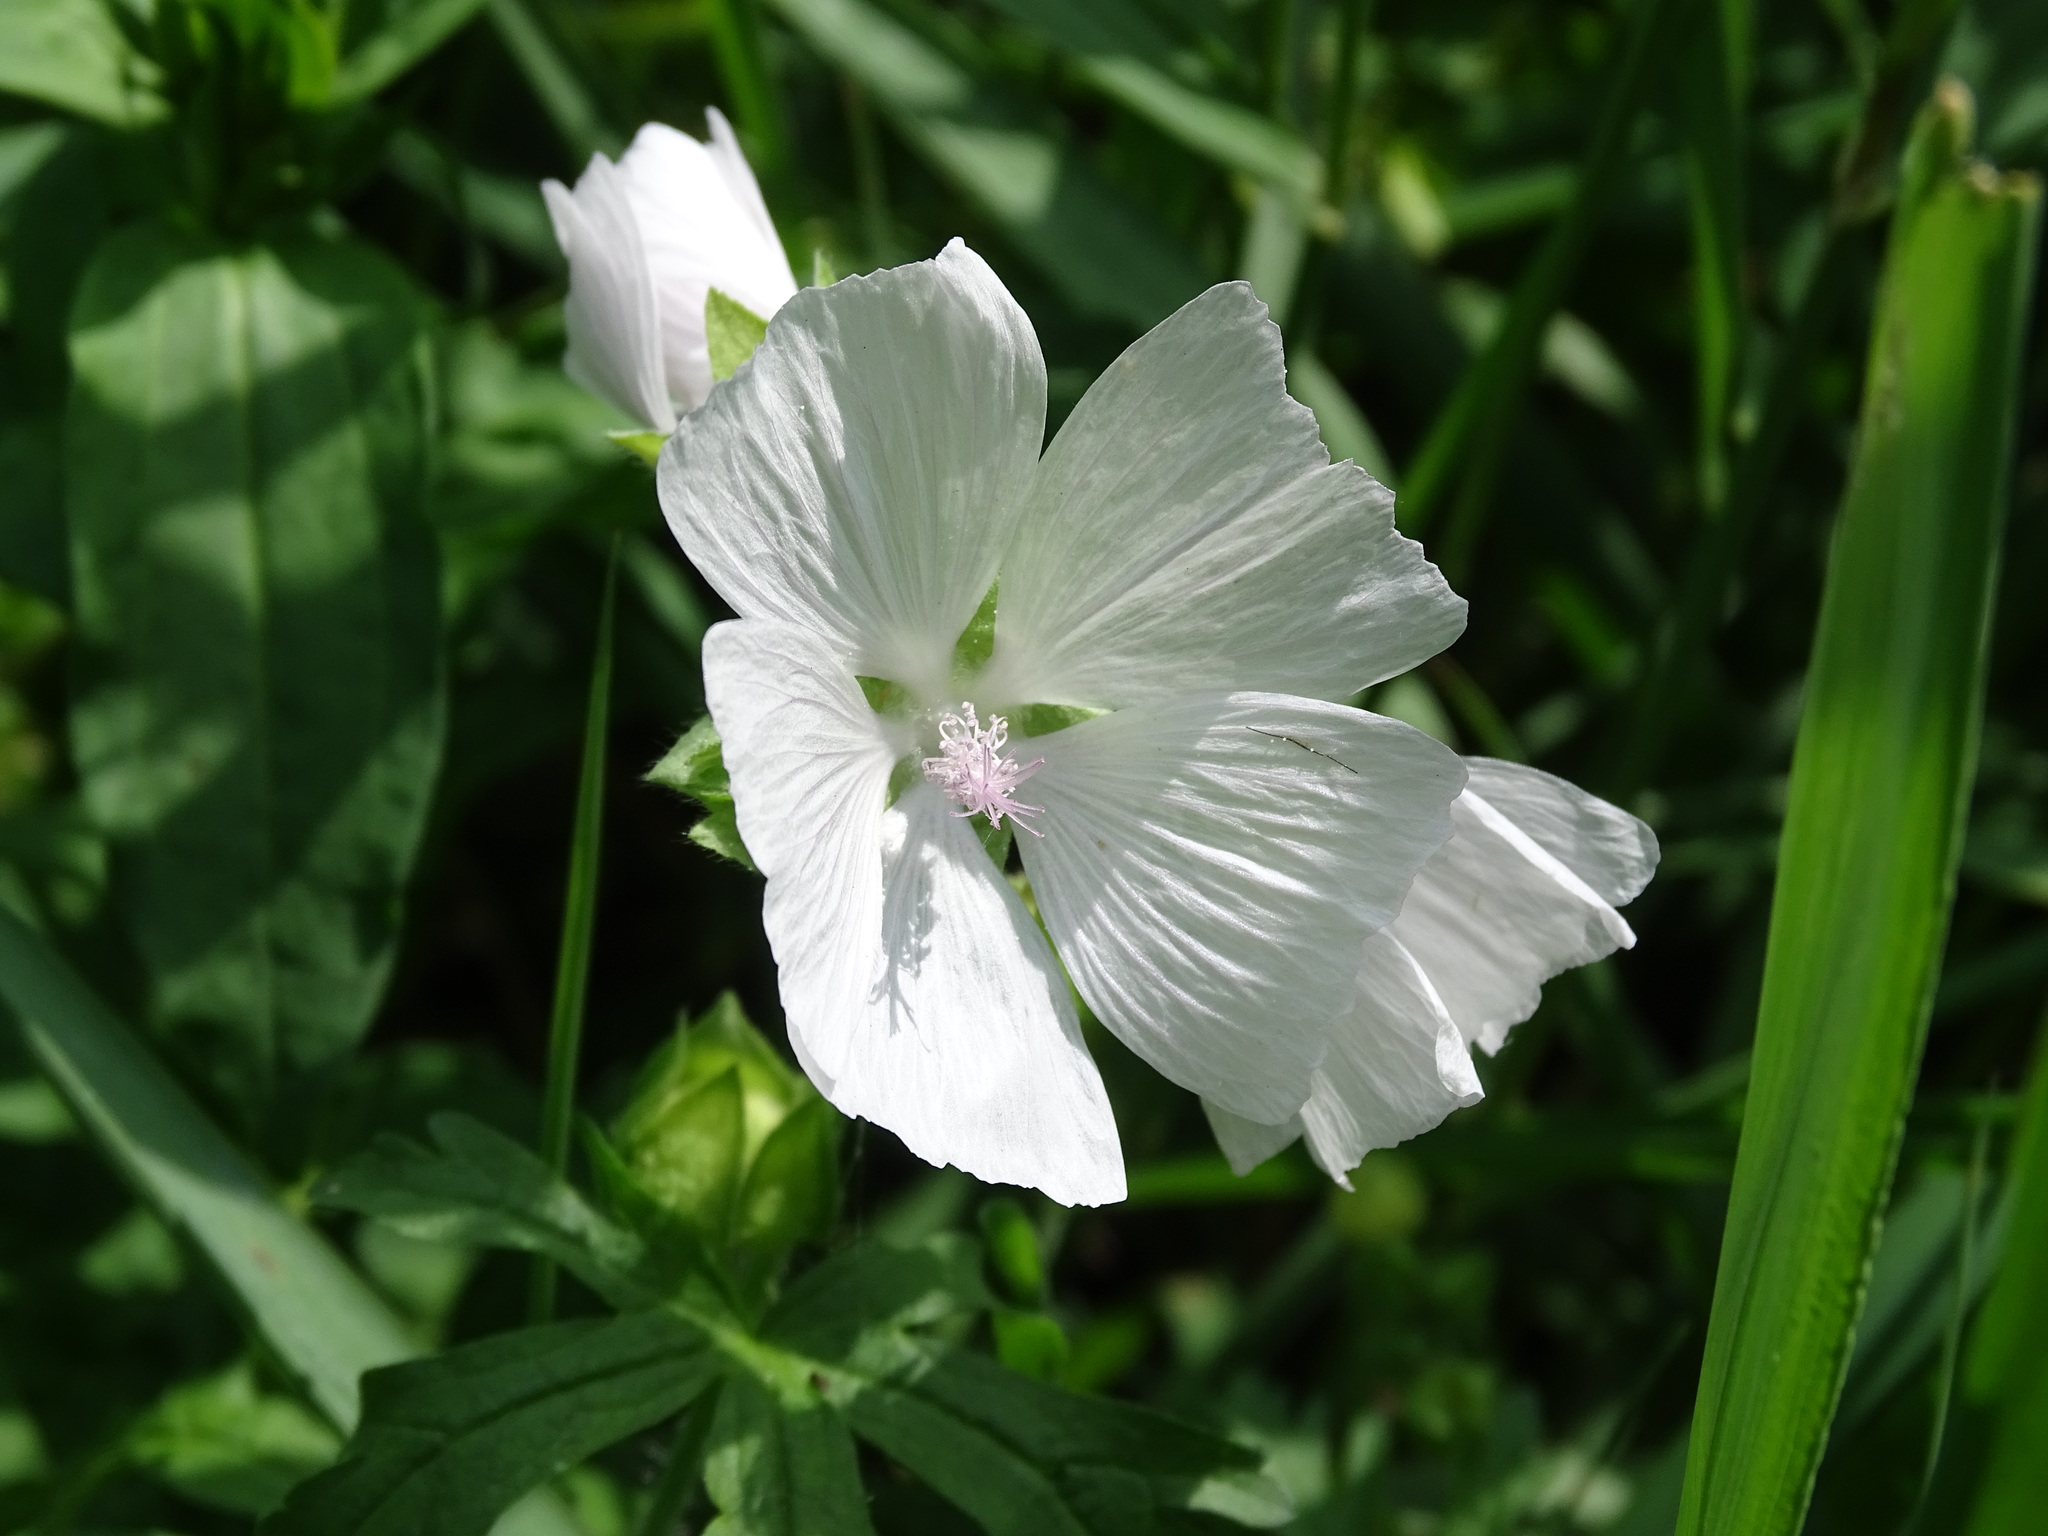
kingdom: Plantae
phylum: Tracheophyta
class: Magnoliopsida
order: Malvales
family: Malvaceae
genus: Malva
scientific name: Malva moschata
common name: Musk mallow
